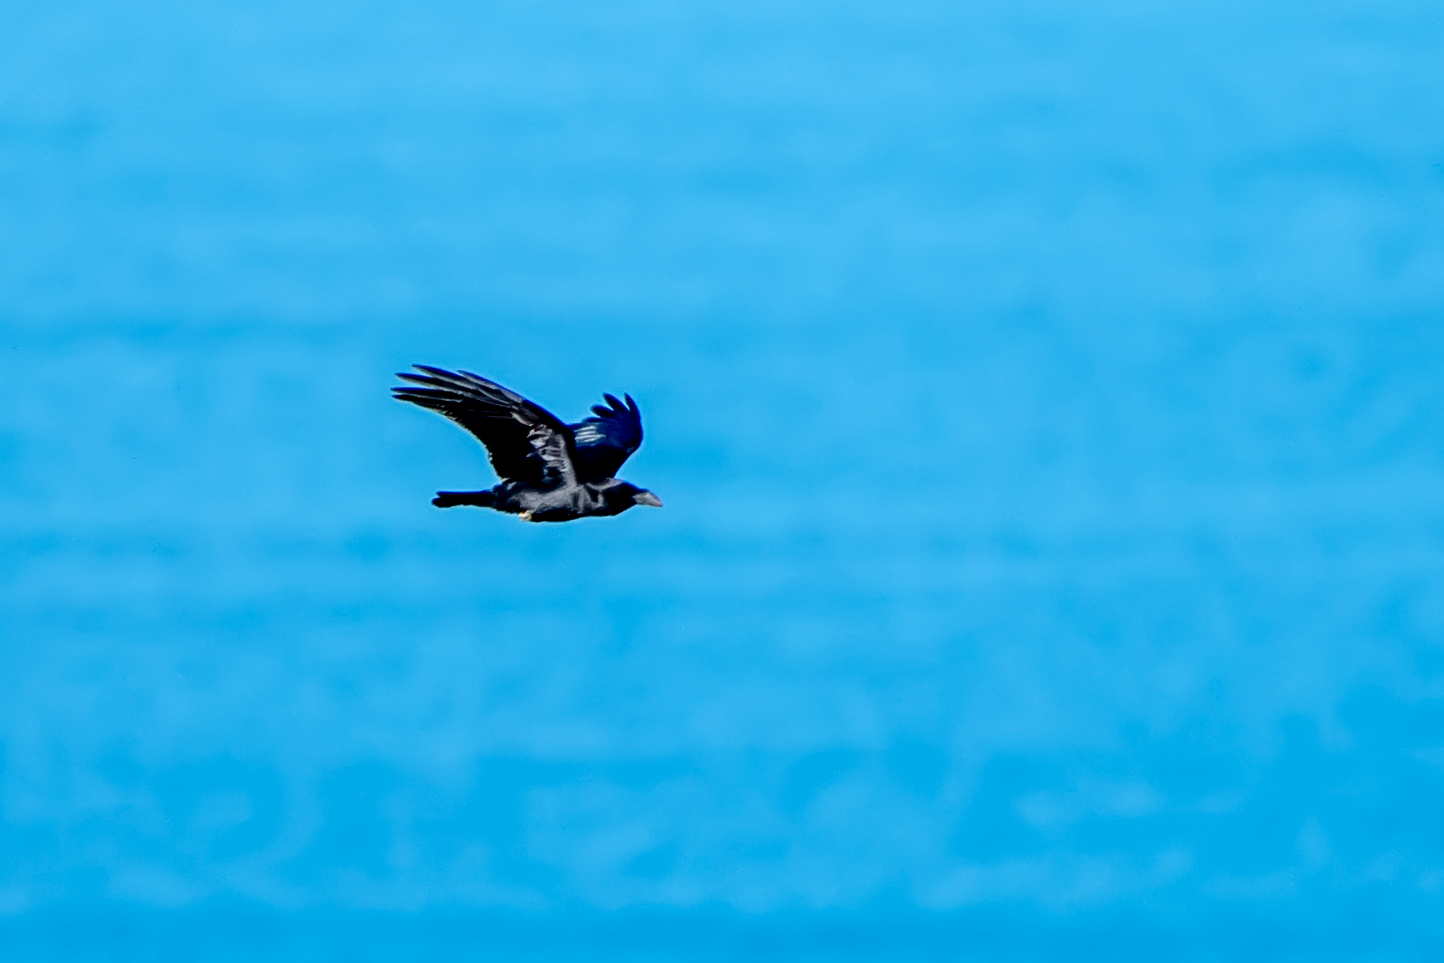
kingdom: Animalia
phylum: Chordata
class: Aves
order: Passeriformes
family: Corvidae
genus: Corvus
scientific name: Corvus corax
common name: Common raven
